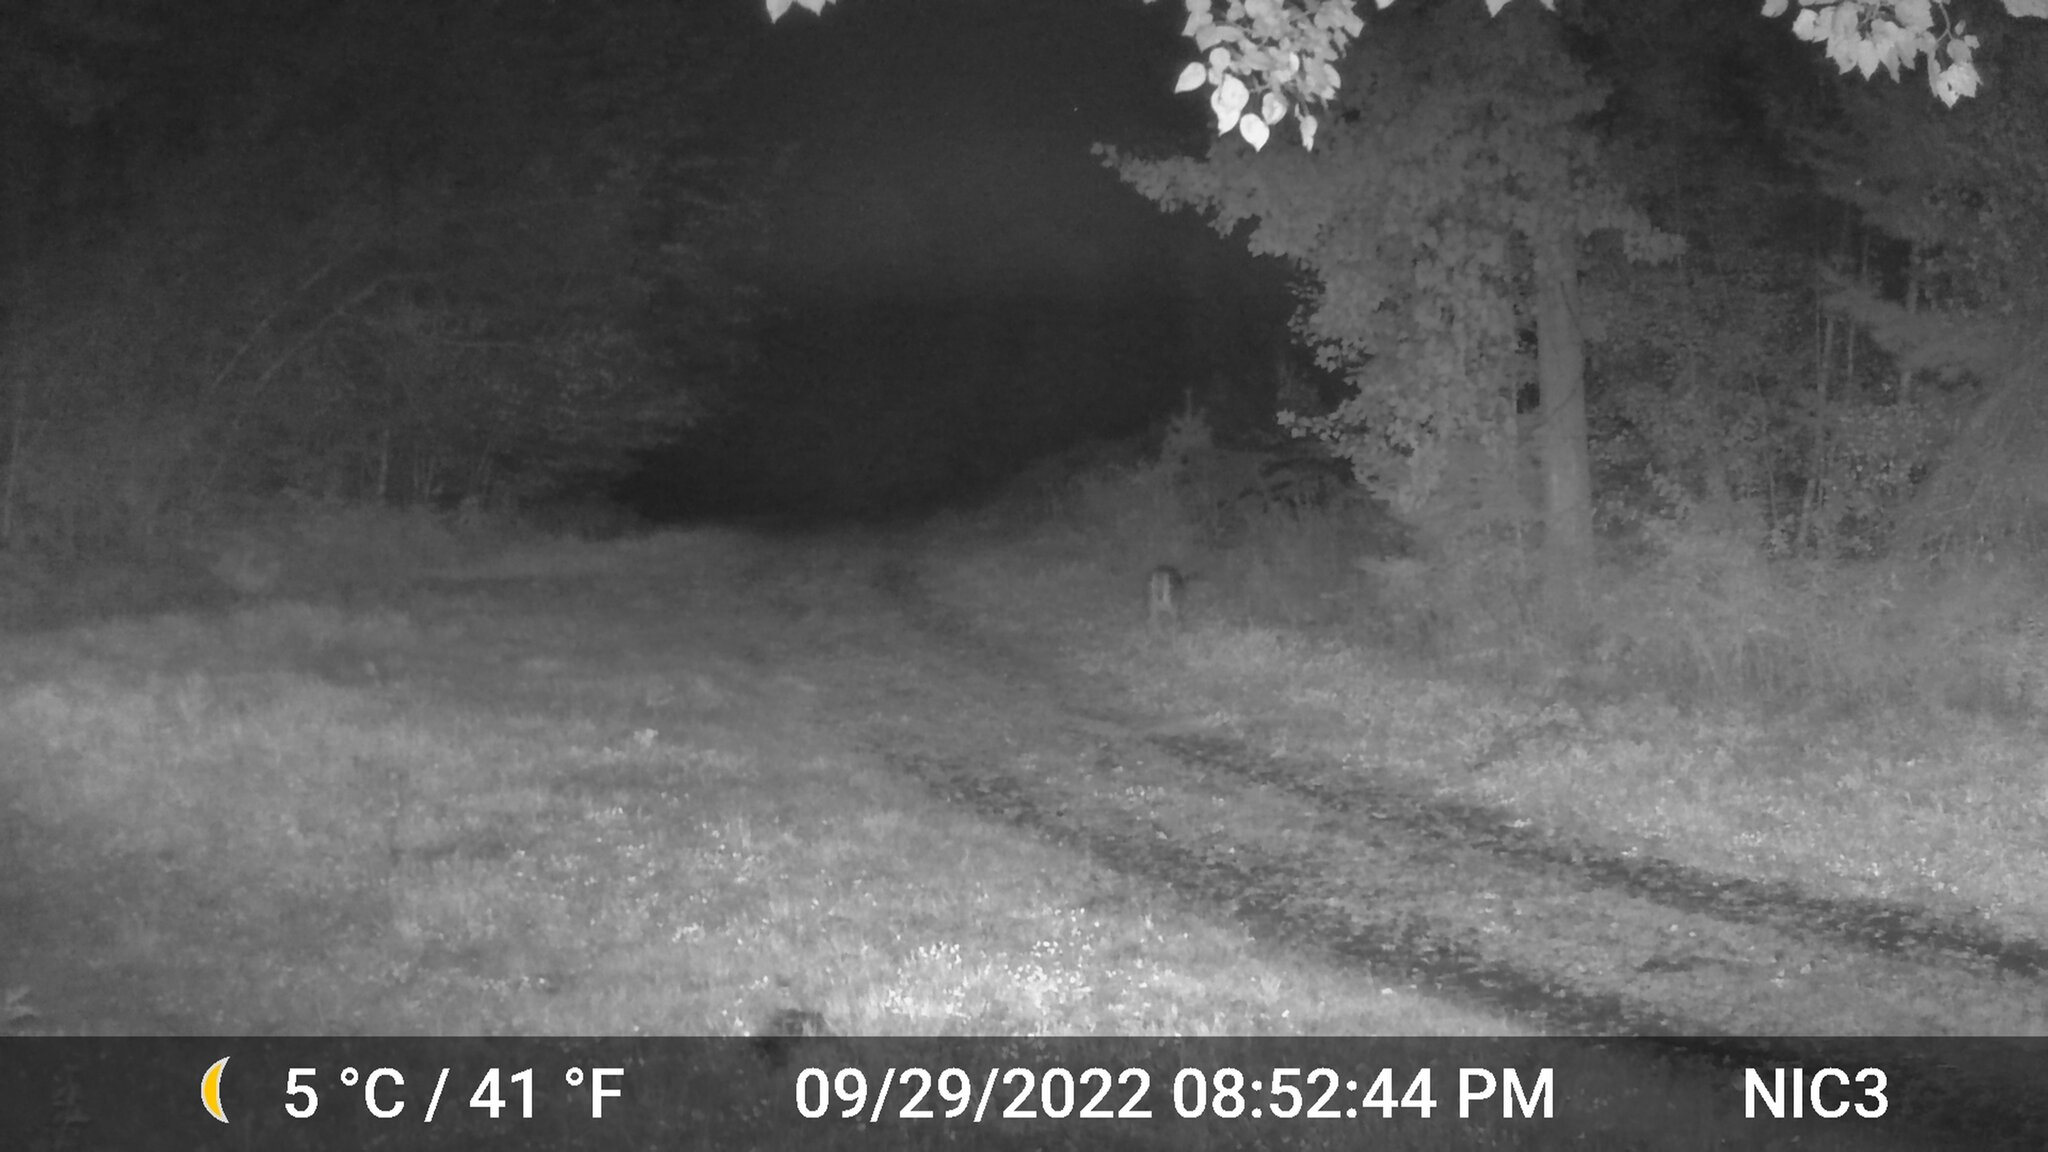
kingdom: Animalia
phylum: Chordata
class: Mammalia
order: Artiodactyla
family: Cervidae
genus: Odocoileus
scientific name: Odocoileus virginianus
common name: White-tailed deer
